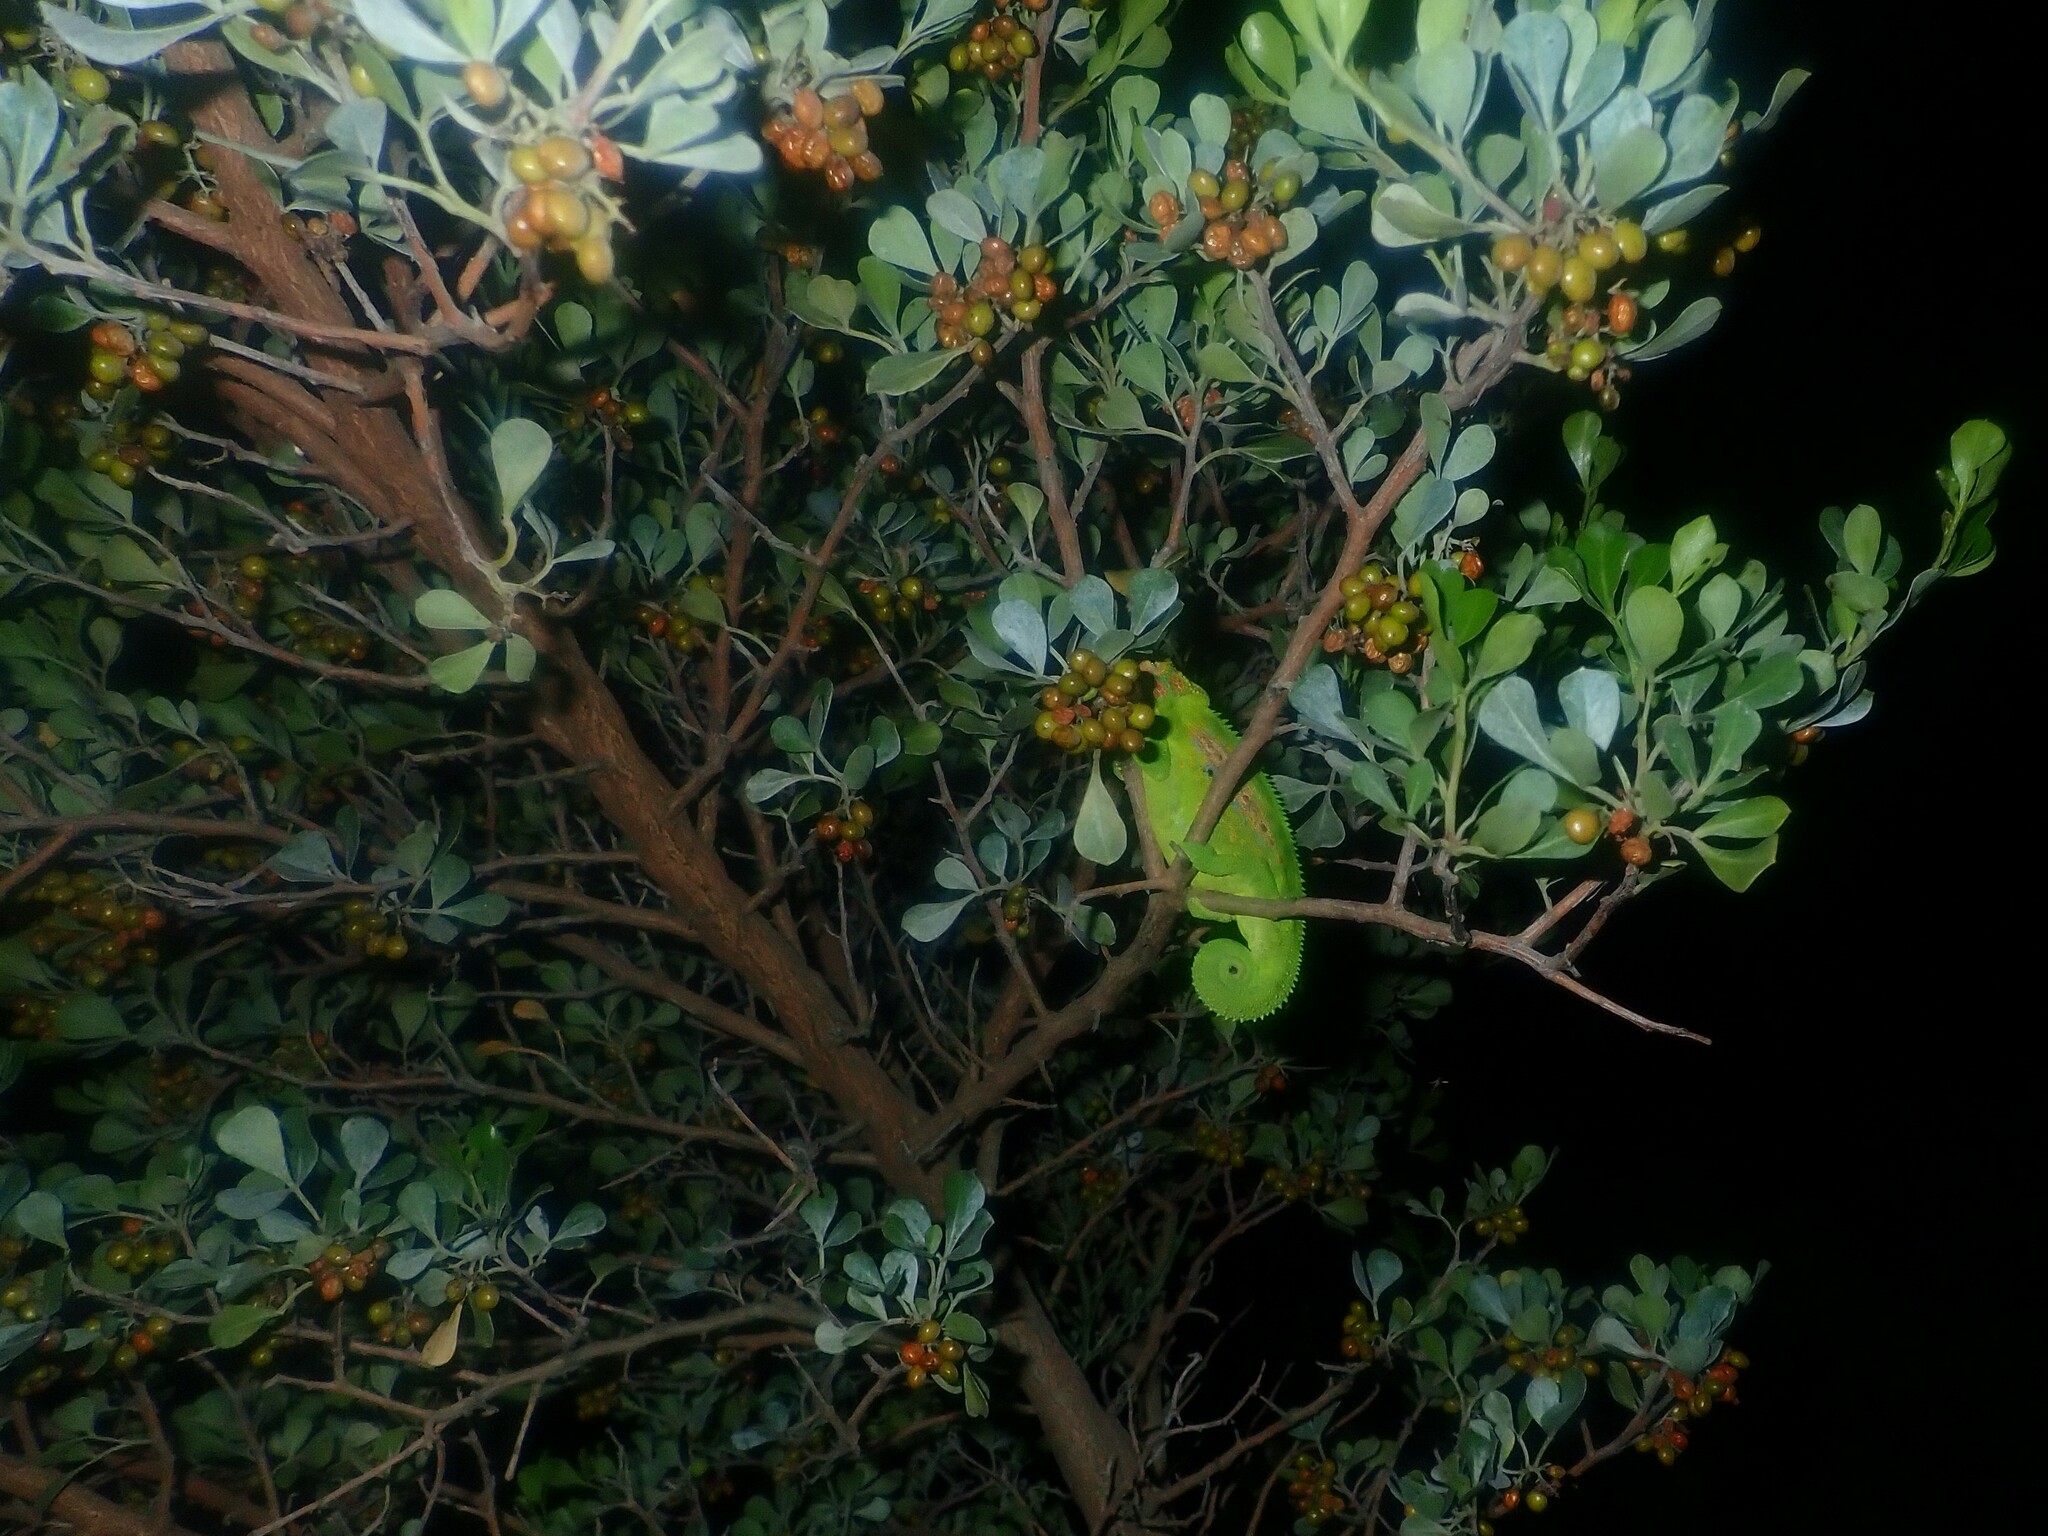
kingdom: Animalia
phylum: Chordata
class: Squamata
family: Chamaeleonidae
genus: Bradypodion
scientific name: Bradypodion pumilum
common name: Cape dwarf chameleon
